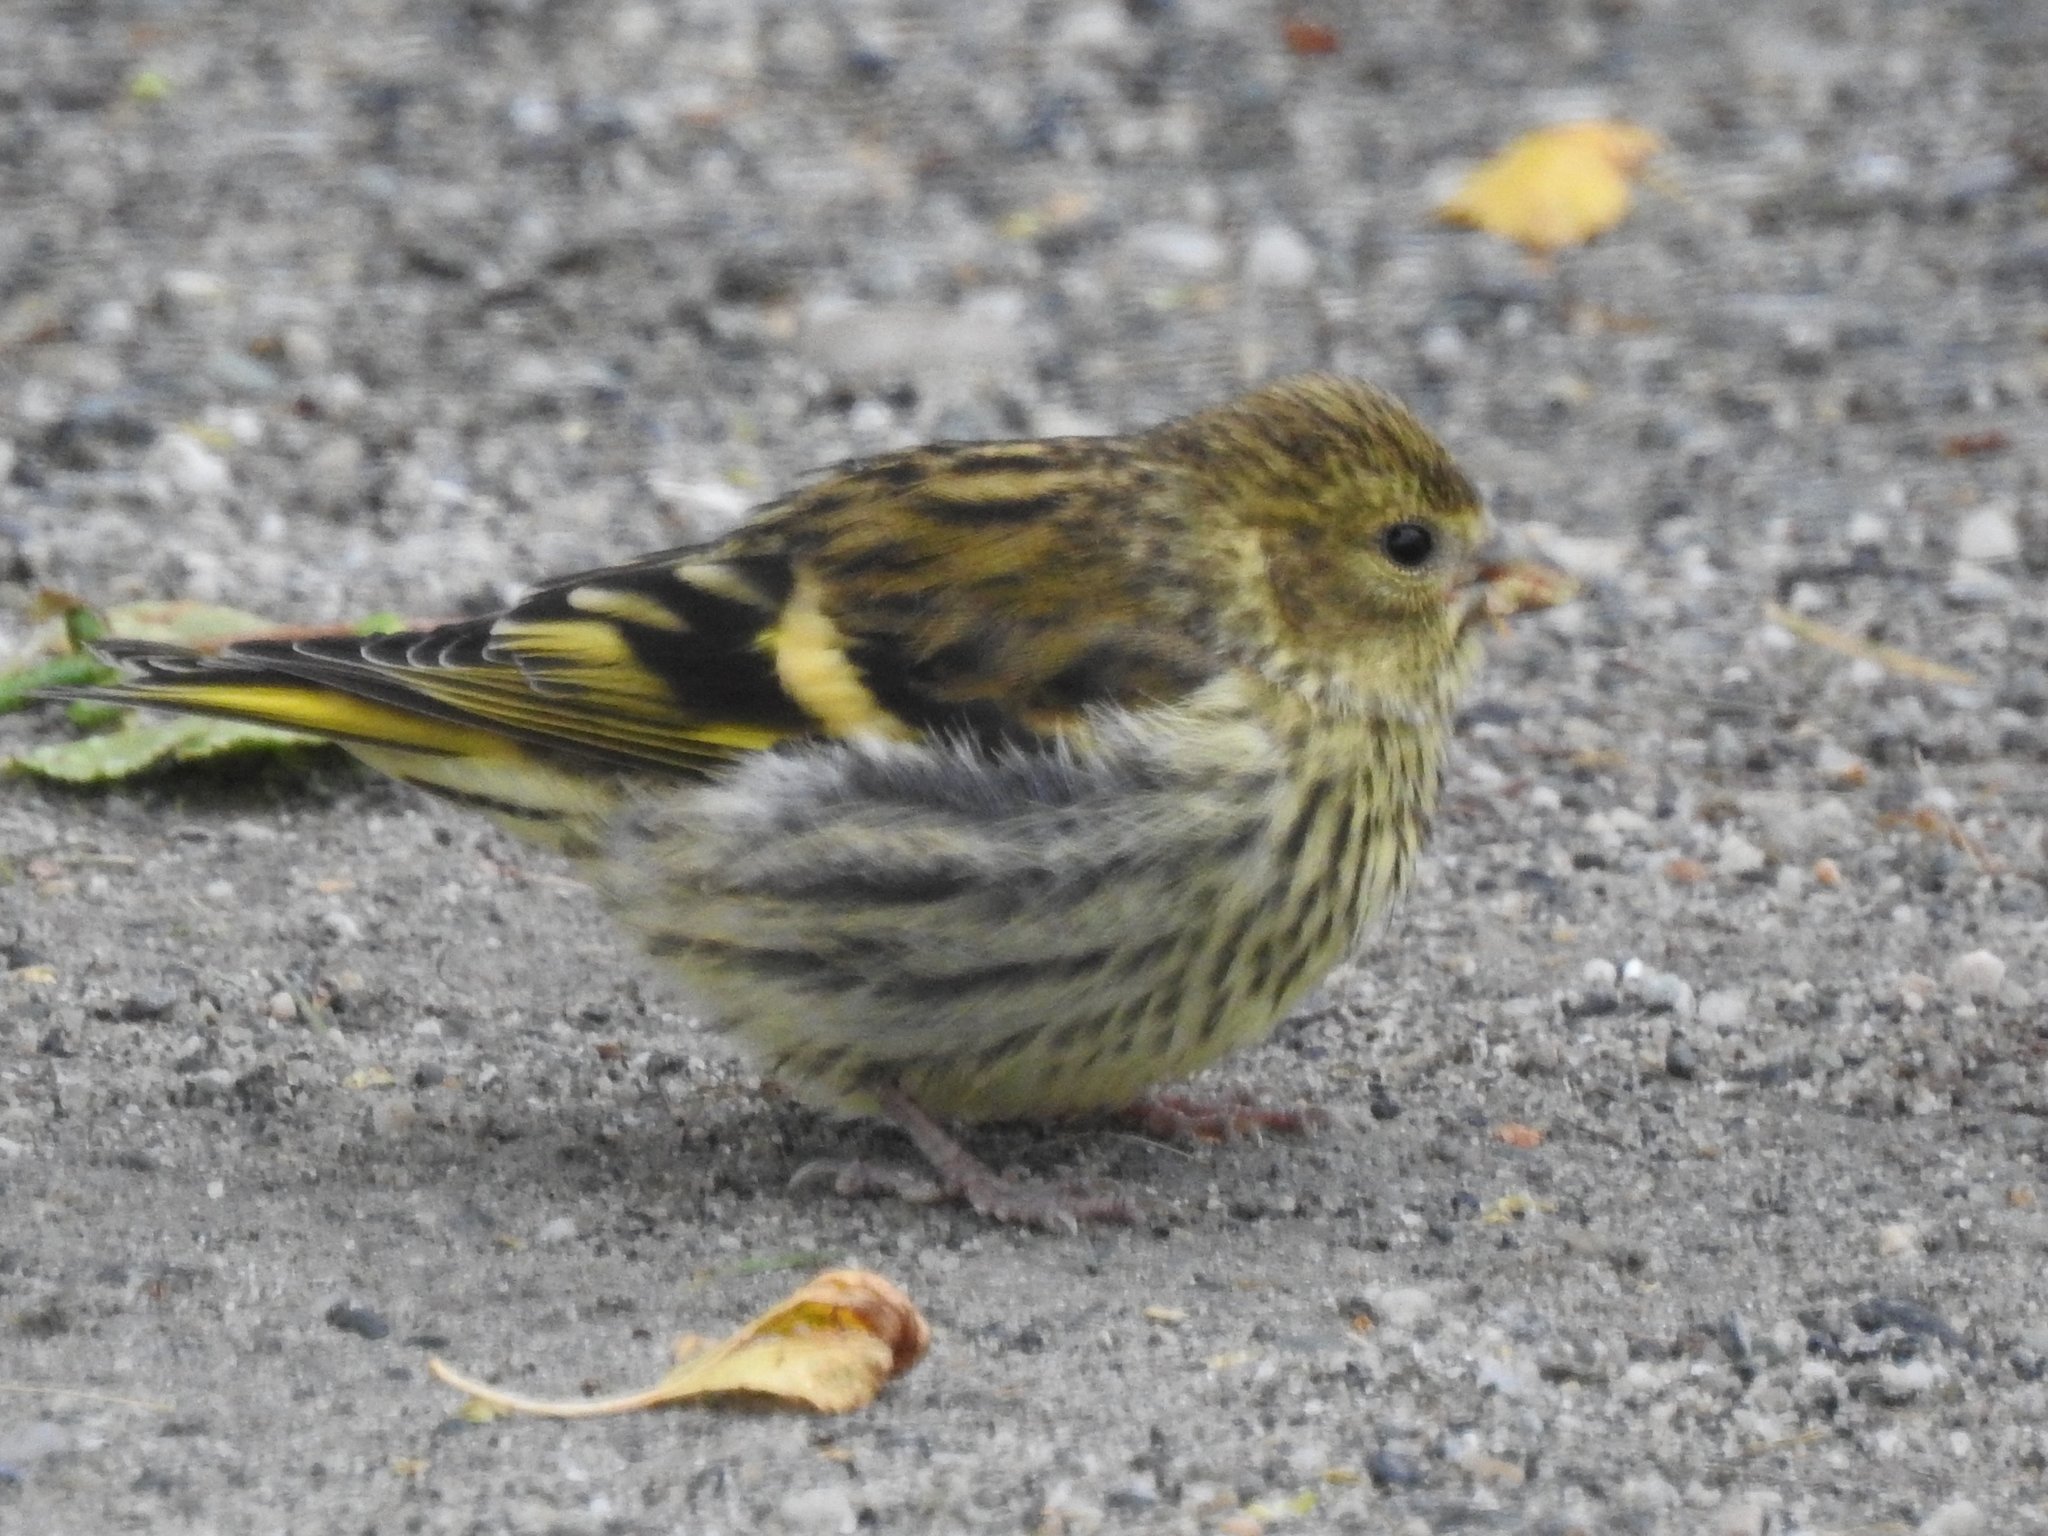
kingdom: Animalia
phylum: Chordata
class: Aves
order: Passeriformes
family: Fringillidae
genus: Spinus
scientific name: Spinus spinus
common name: Eurasian siskin
